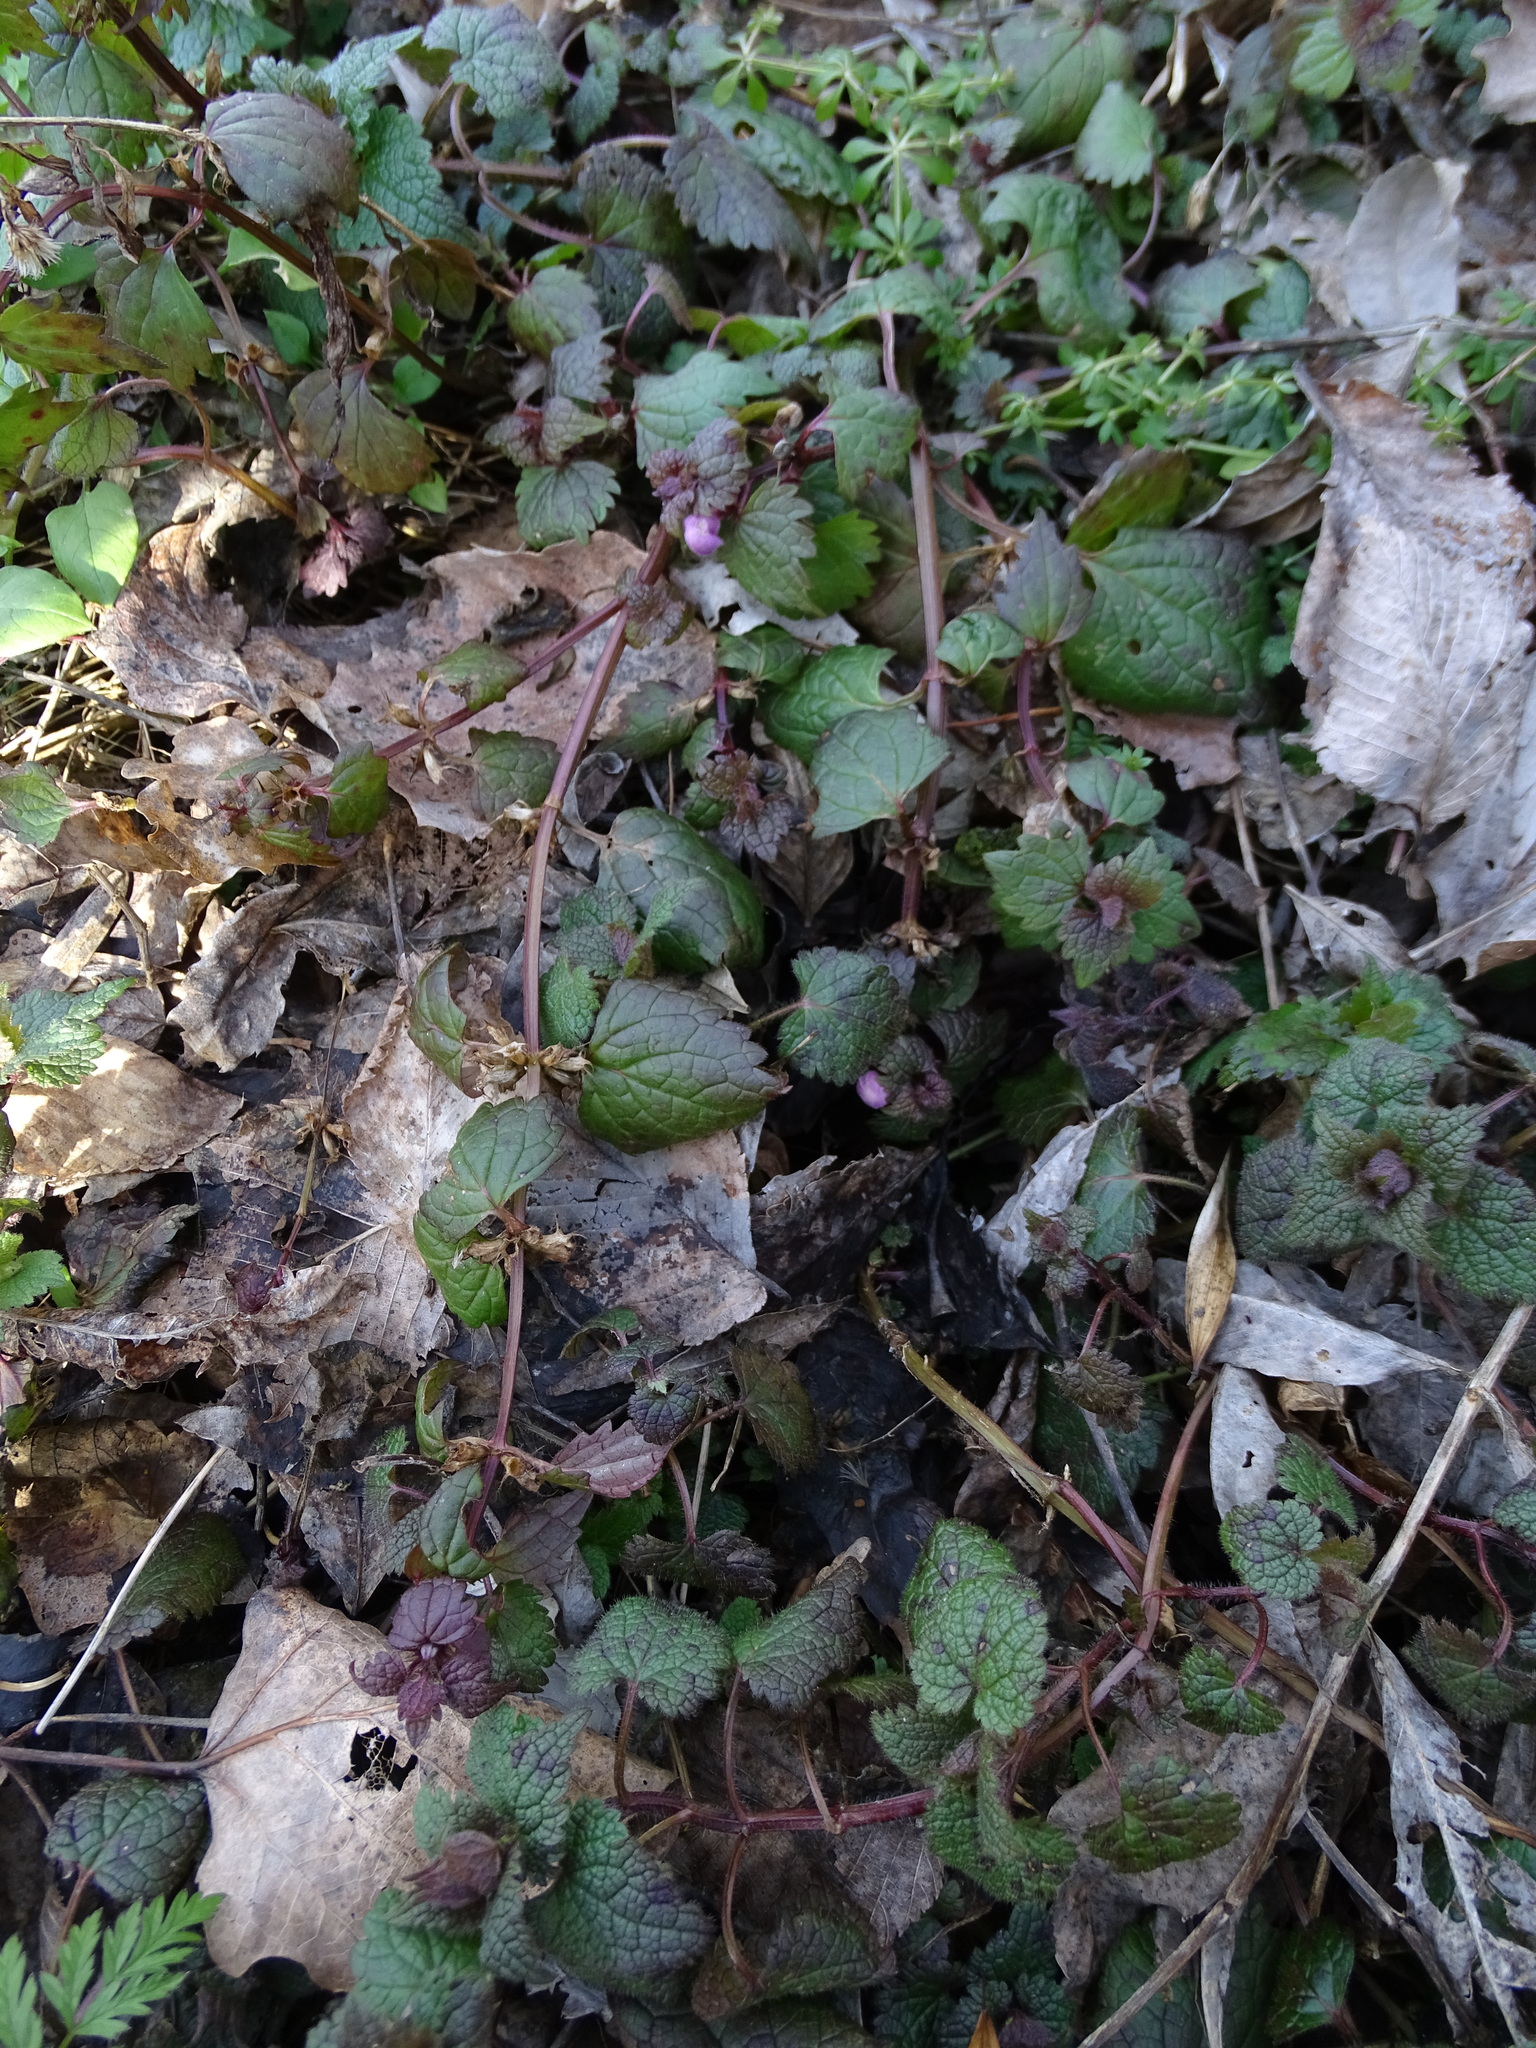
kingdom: Plantae
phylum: Tracheophyta
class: Magnoliopsida
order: Lamiales
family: Lamiaceae
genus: Lamium
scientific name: Lamium maculatum
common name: Spotted dead-nettle
